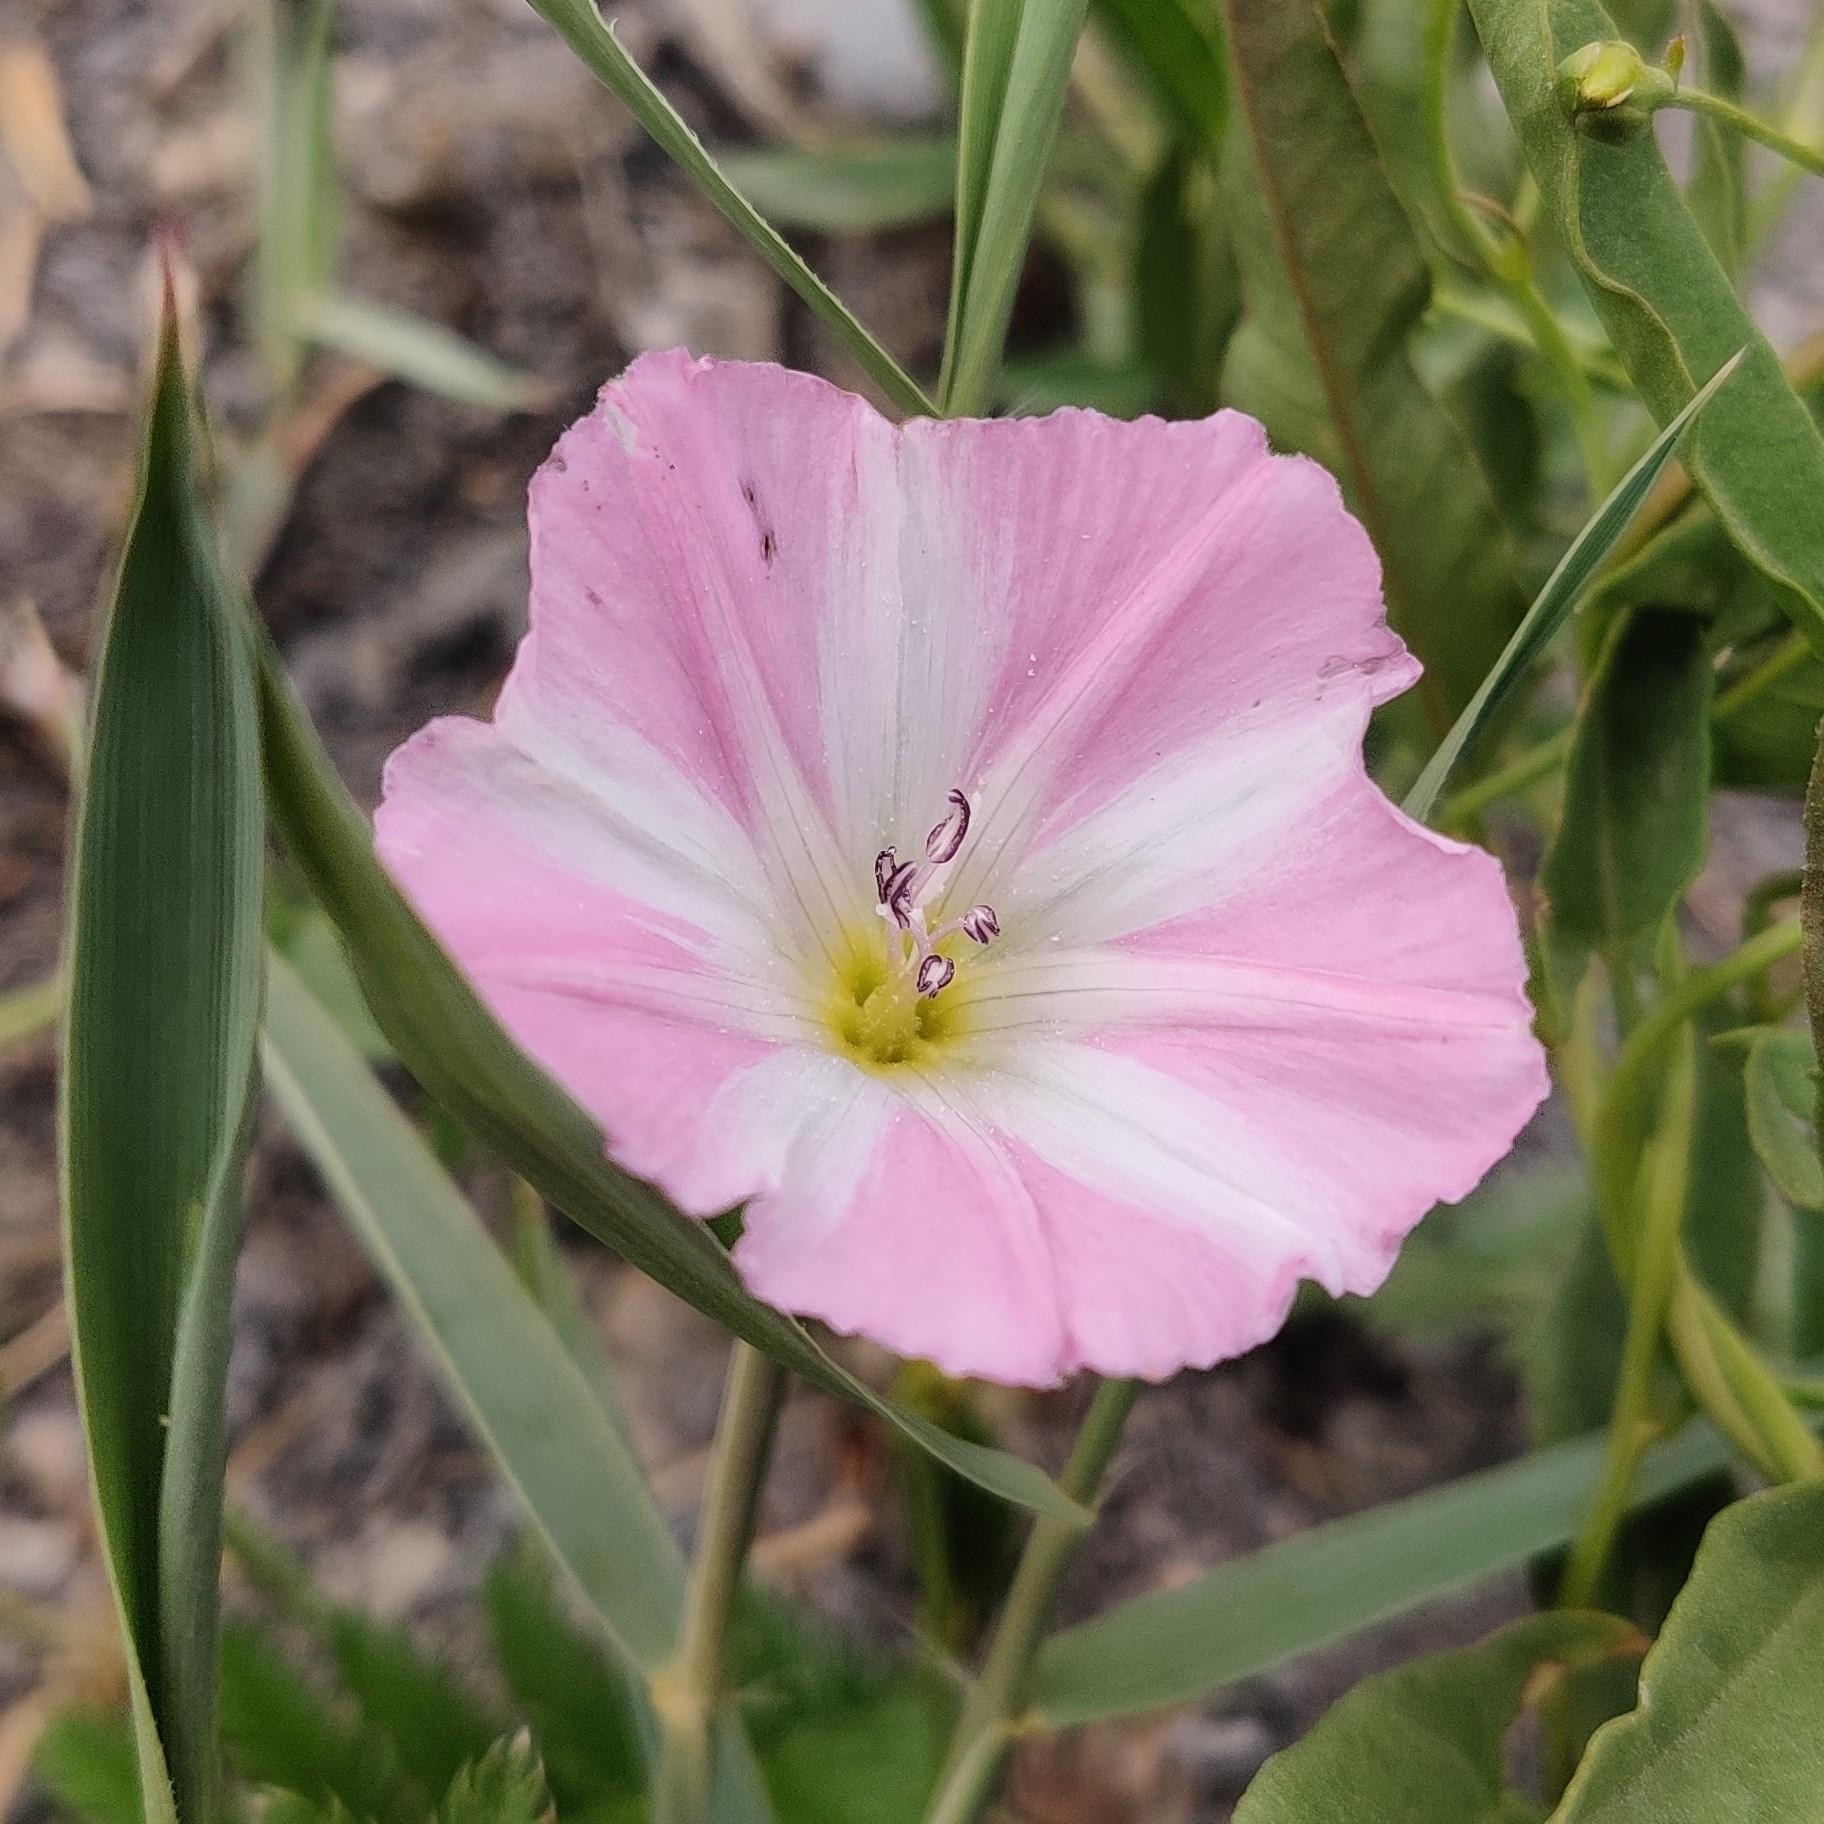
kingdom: Plantae
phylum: Tracheophyta
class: Magnoliopsida
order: Solanales
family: Convolvulaceae
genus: Convolvulus
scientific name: Convolvulus arvensis
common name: Field bindweed
